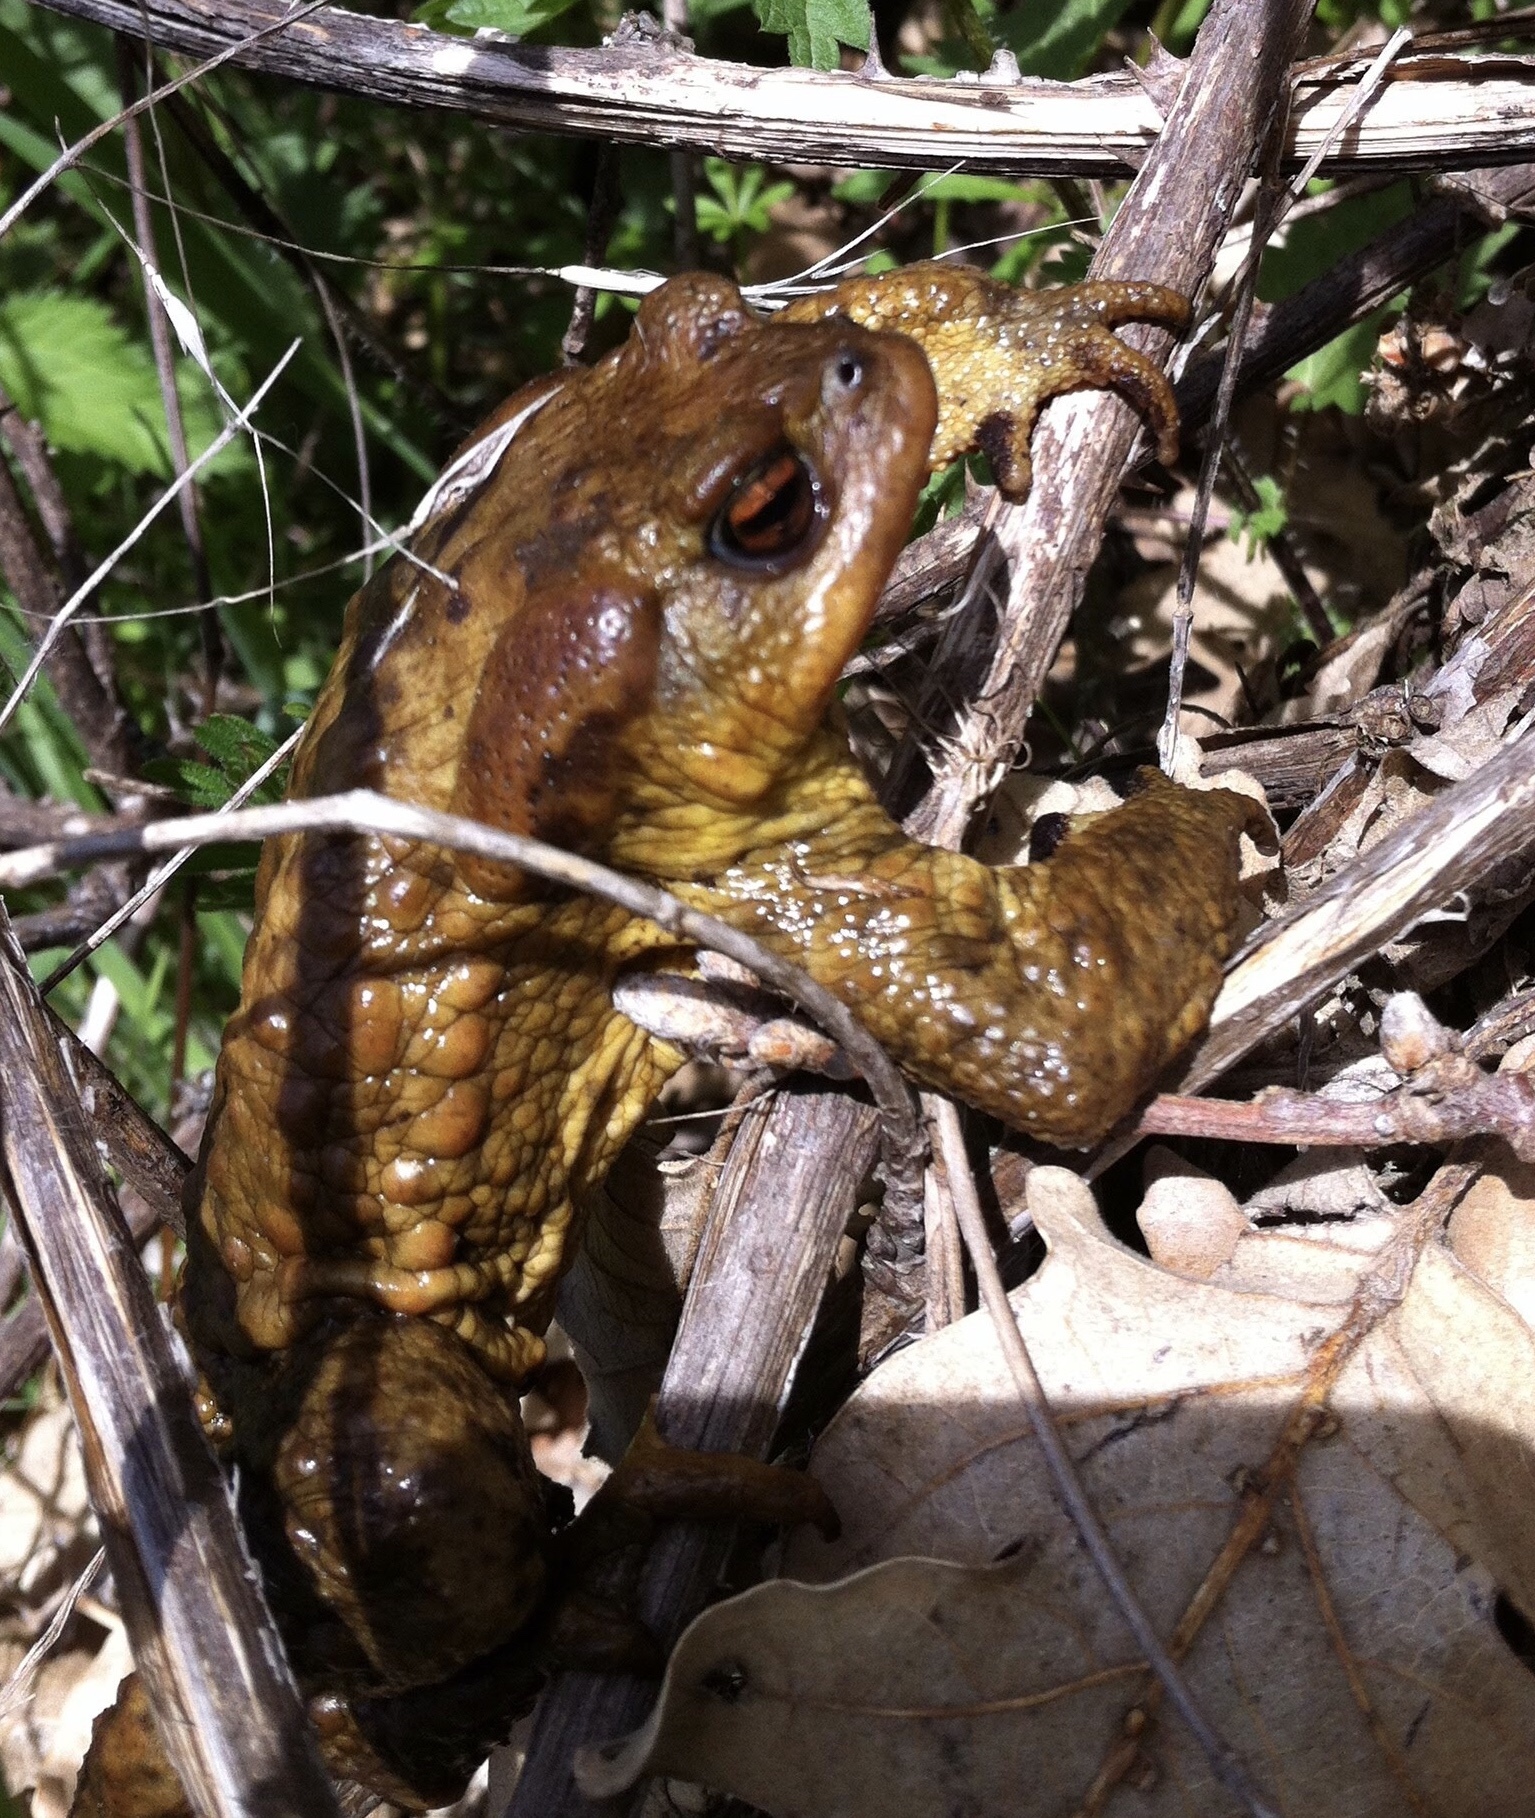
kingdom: Animalia
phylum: Chordata
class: Amphibia
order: Anura
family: Bufonidae
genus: Bufo
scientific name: Bufo spinosus
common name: Western common toad
